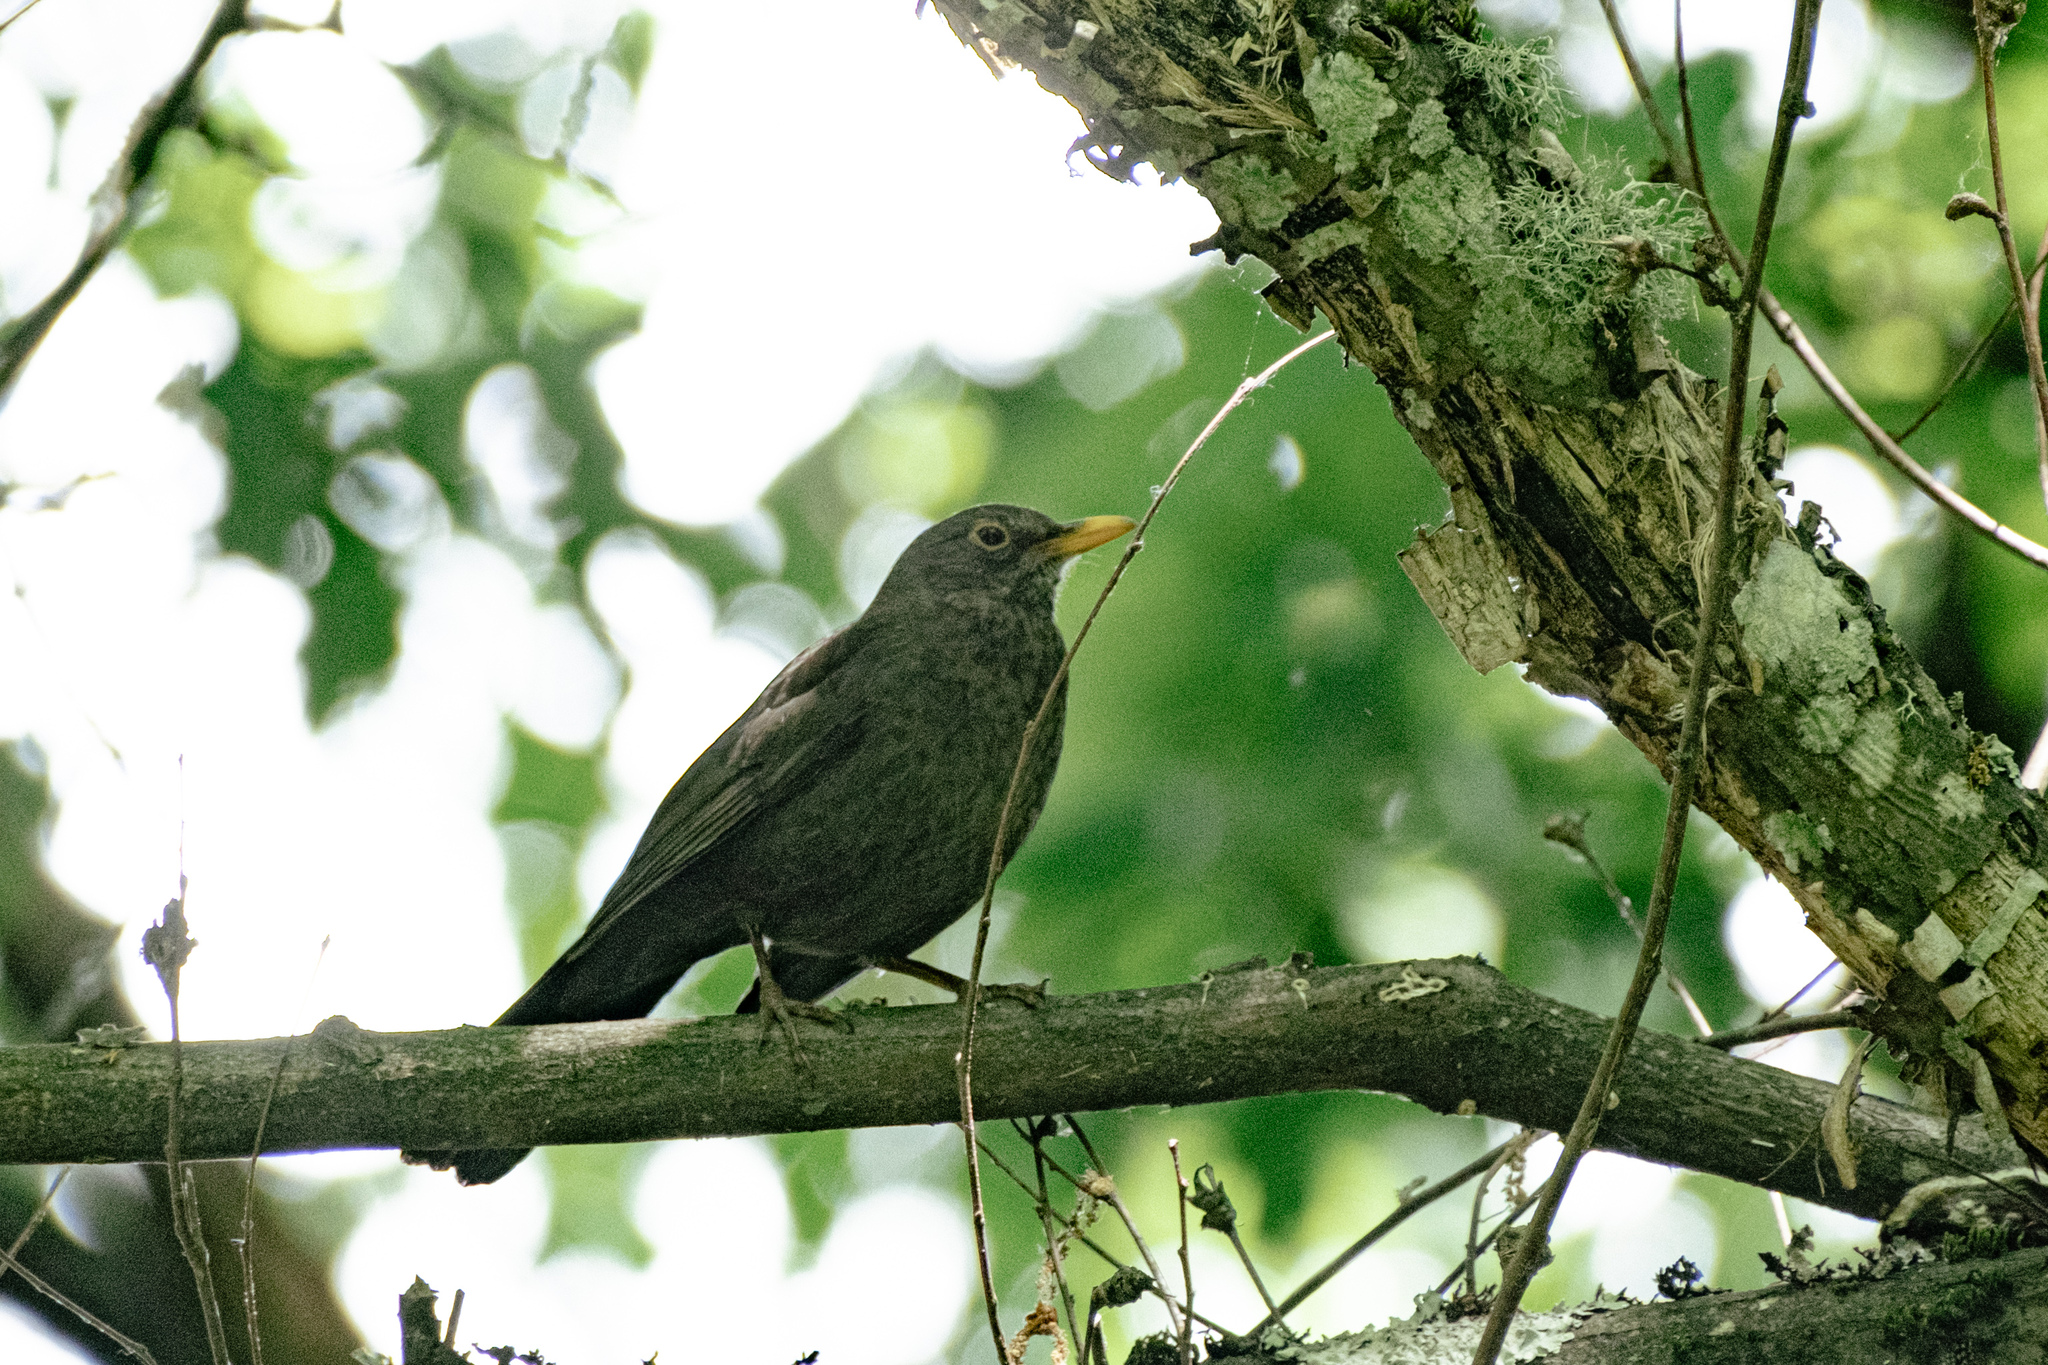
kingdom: Animalia
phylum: Chordata
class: Aves
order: Passeriformes
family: Turdidae
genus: Turdus
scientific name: Turdus merula
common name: Common blackbird
